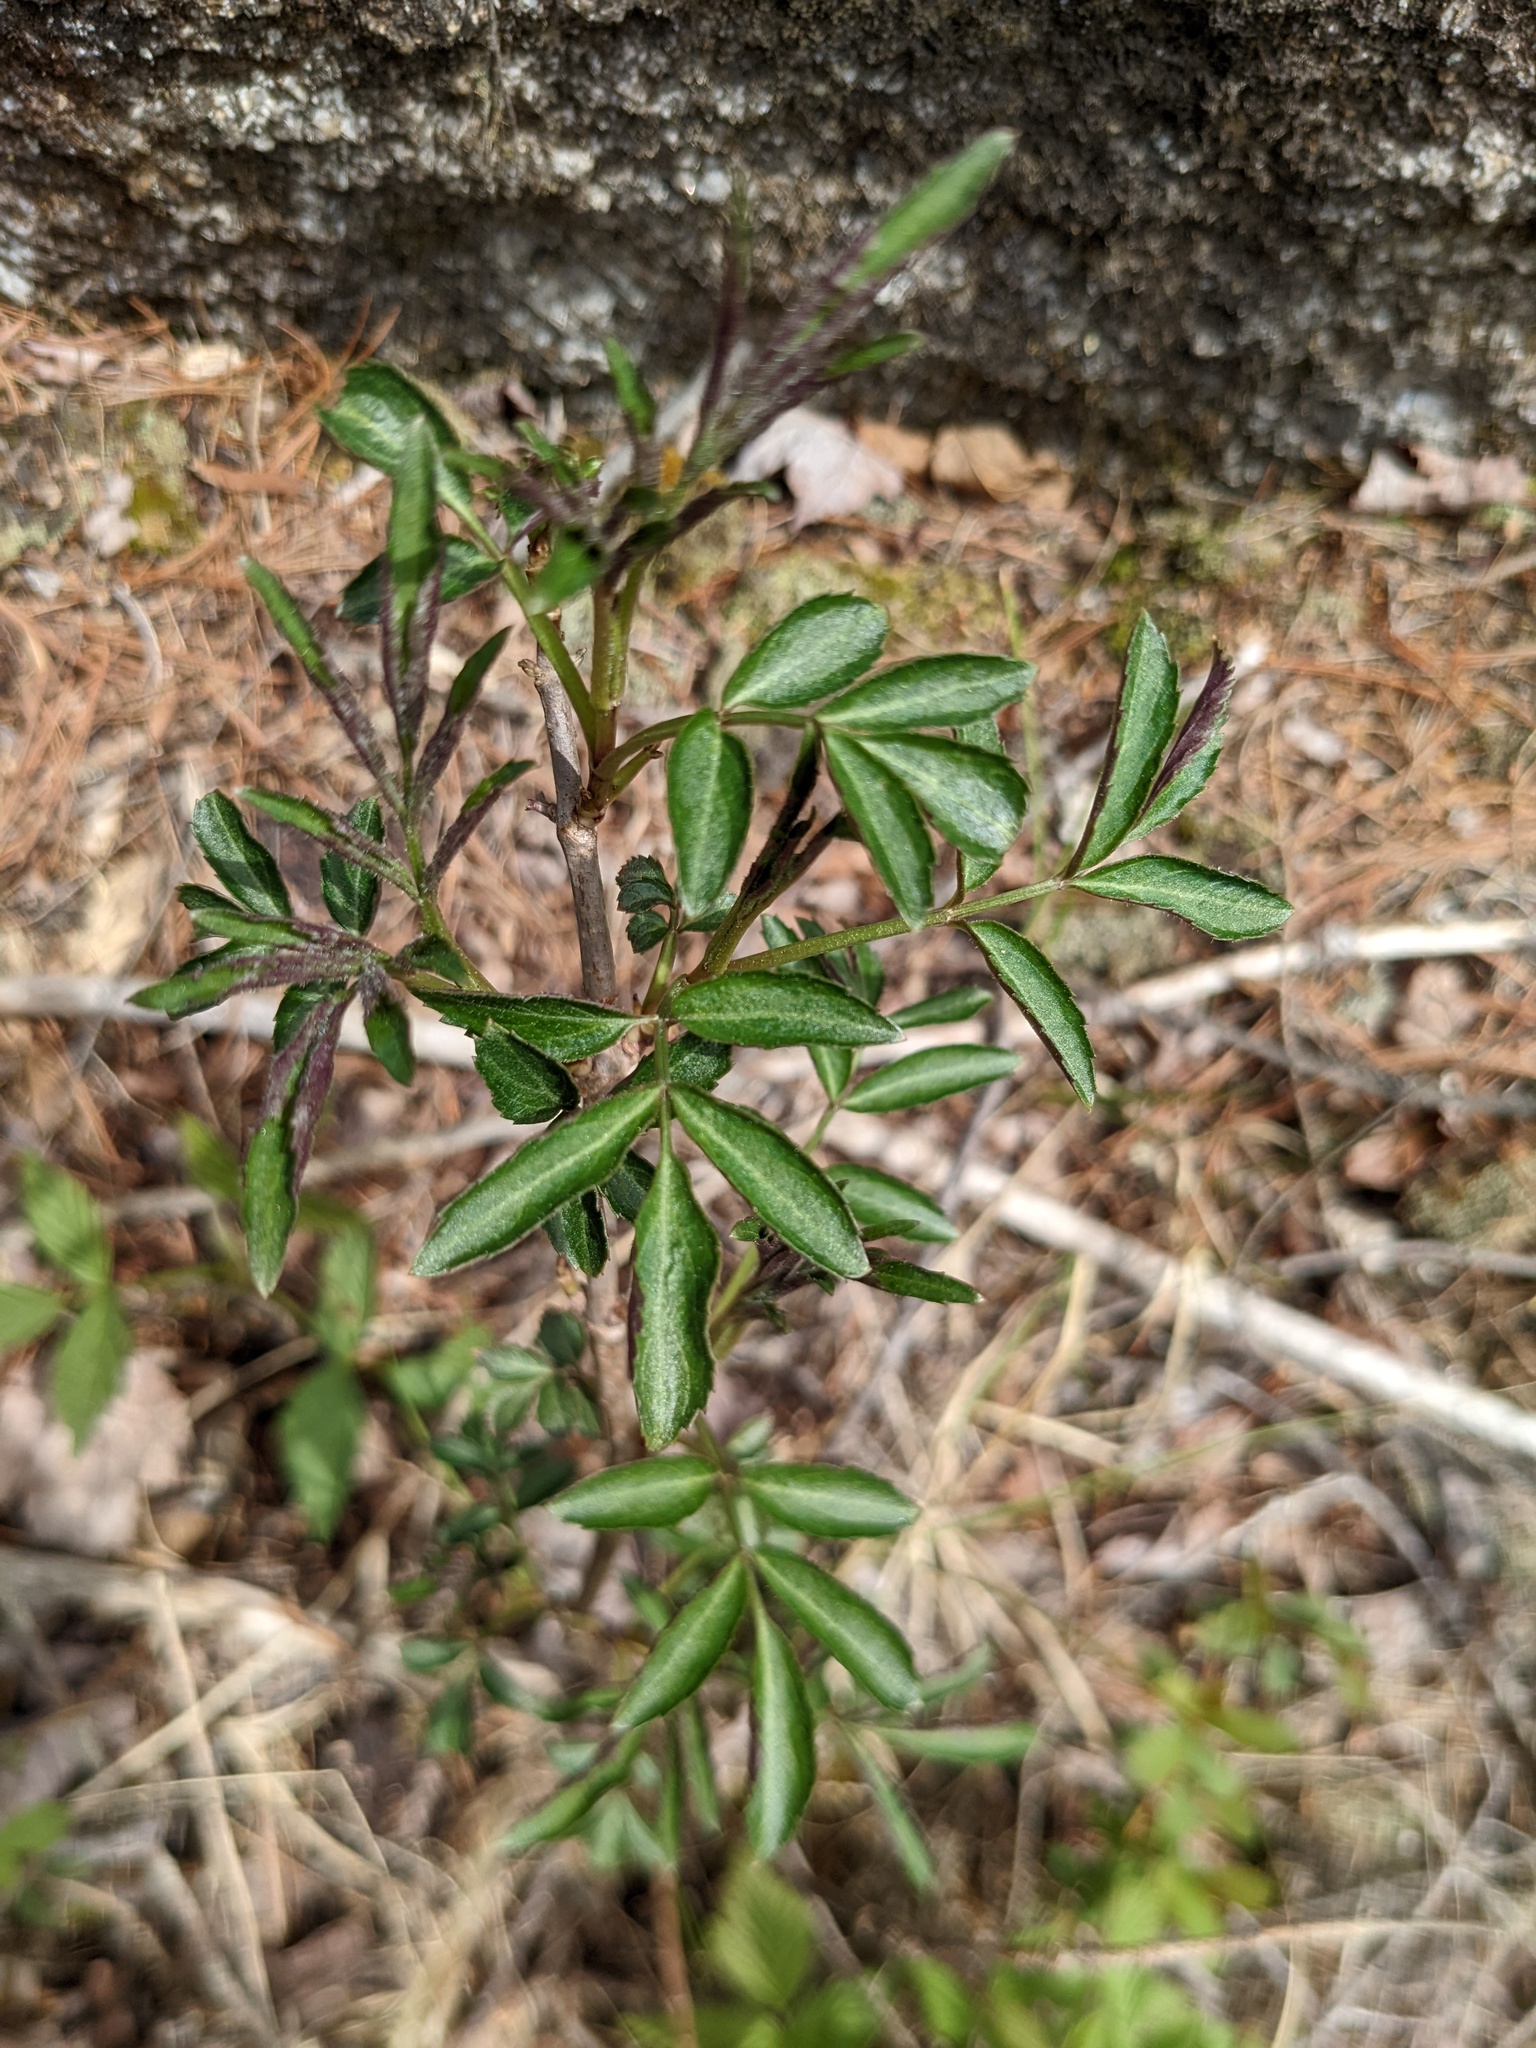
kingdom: Plantae
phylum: Tracheophyta
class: Magnoliopsida
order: Dipsacales
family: Viburnaceae
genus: Sambucus
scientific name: Sambucus racemosa
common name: Red-berried elder
